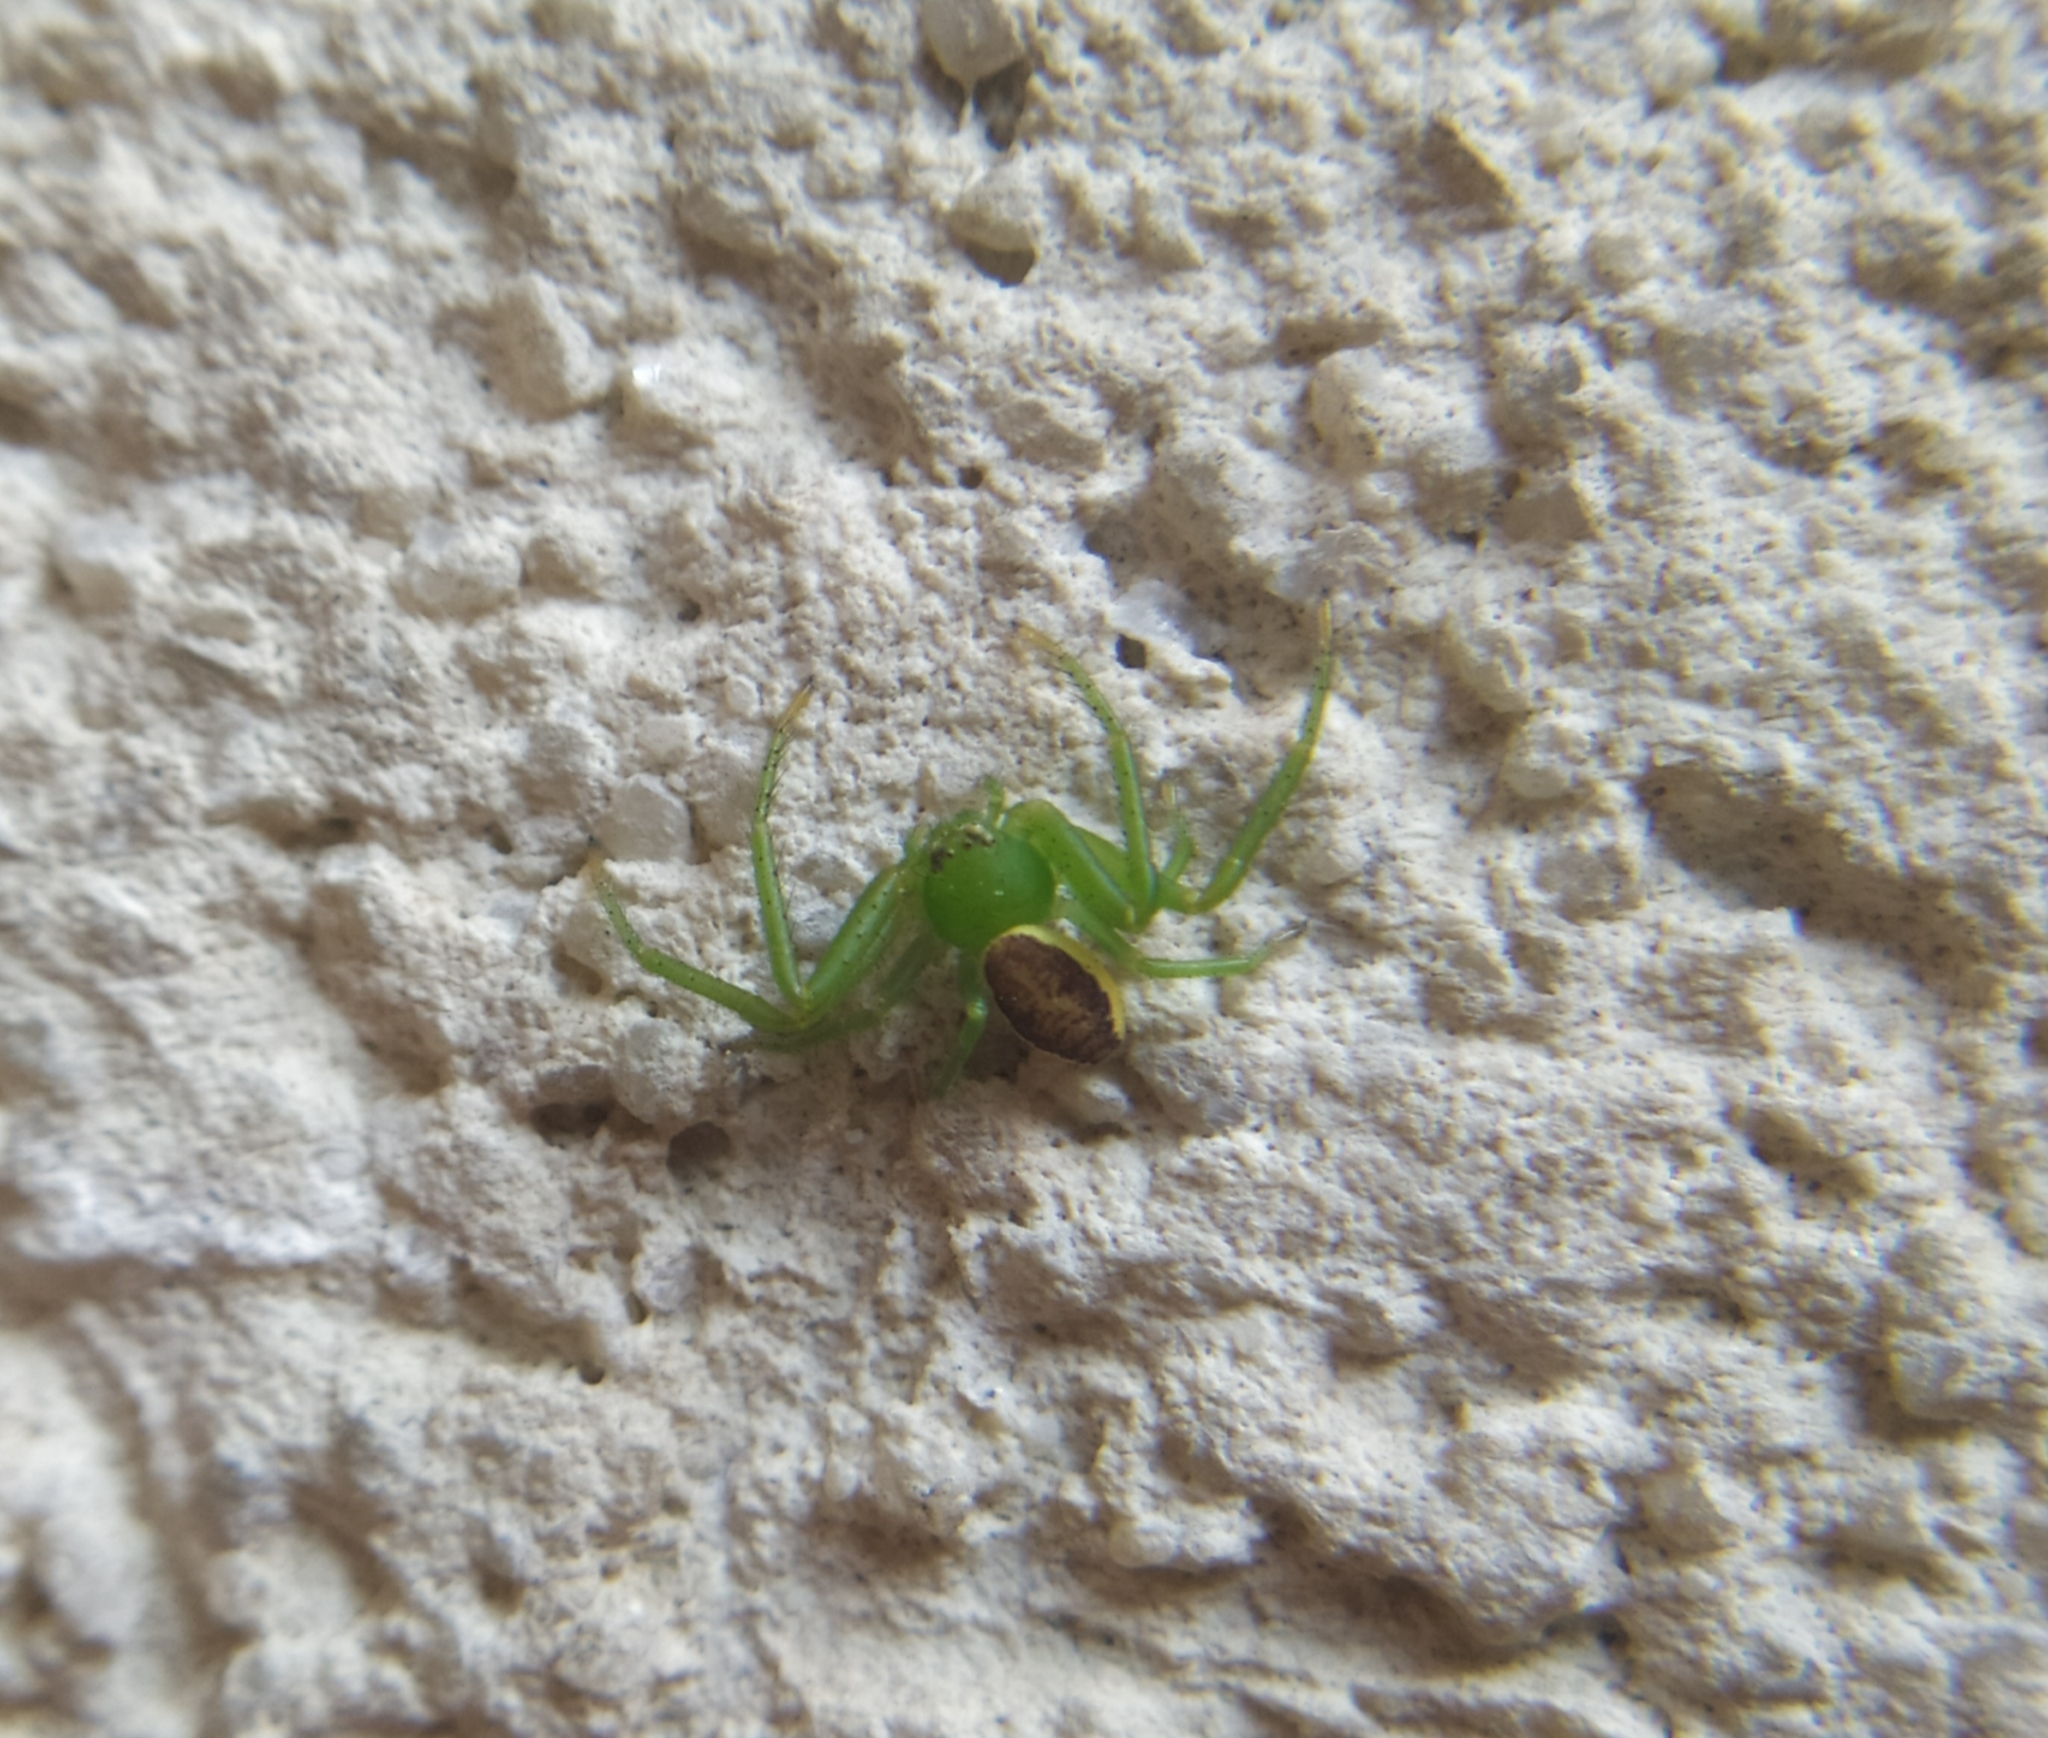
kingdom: Animalia
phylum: Arthropoda
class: Arachnida
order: Araneae
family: Thomisidae
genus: Diaea
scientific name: Diaea dorsata
